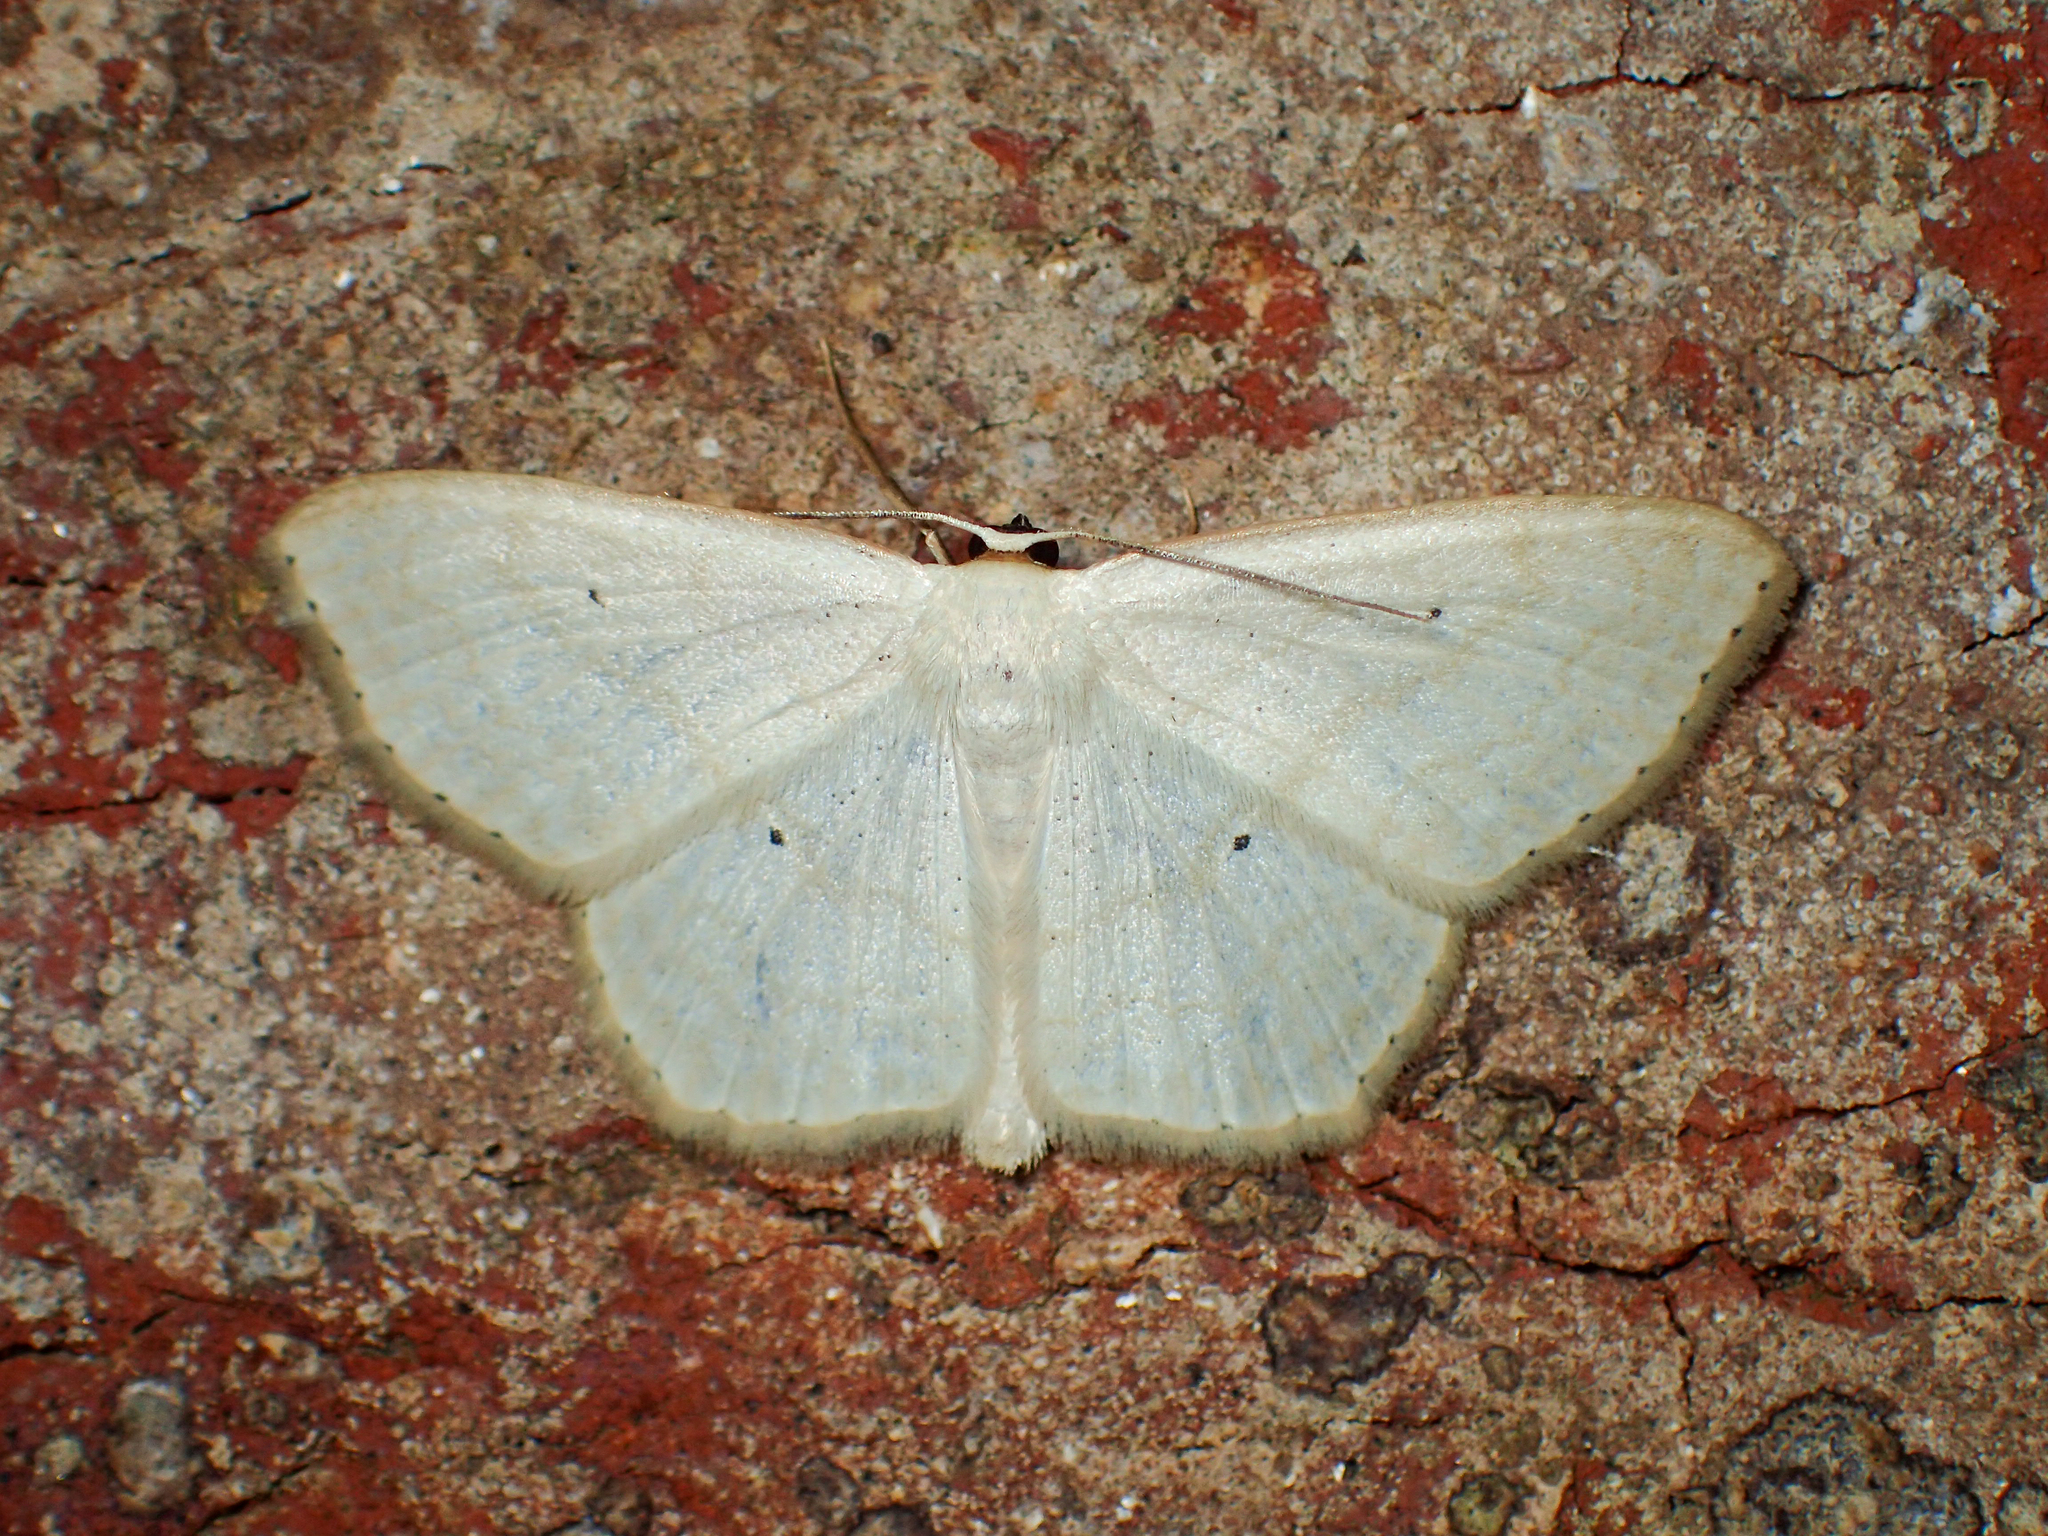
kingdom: Animalia
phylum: Arthropoda
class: Insecta
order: Lepidoptera
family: Geometridae
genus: Scopula
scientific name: Scopula limboundata
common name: Large lace border
